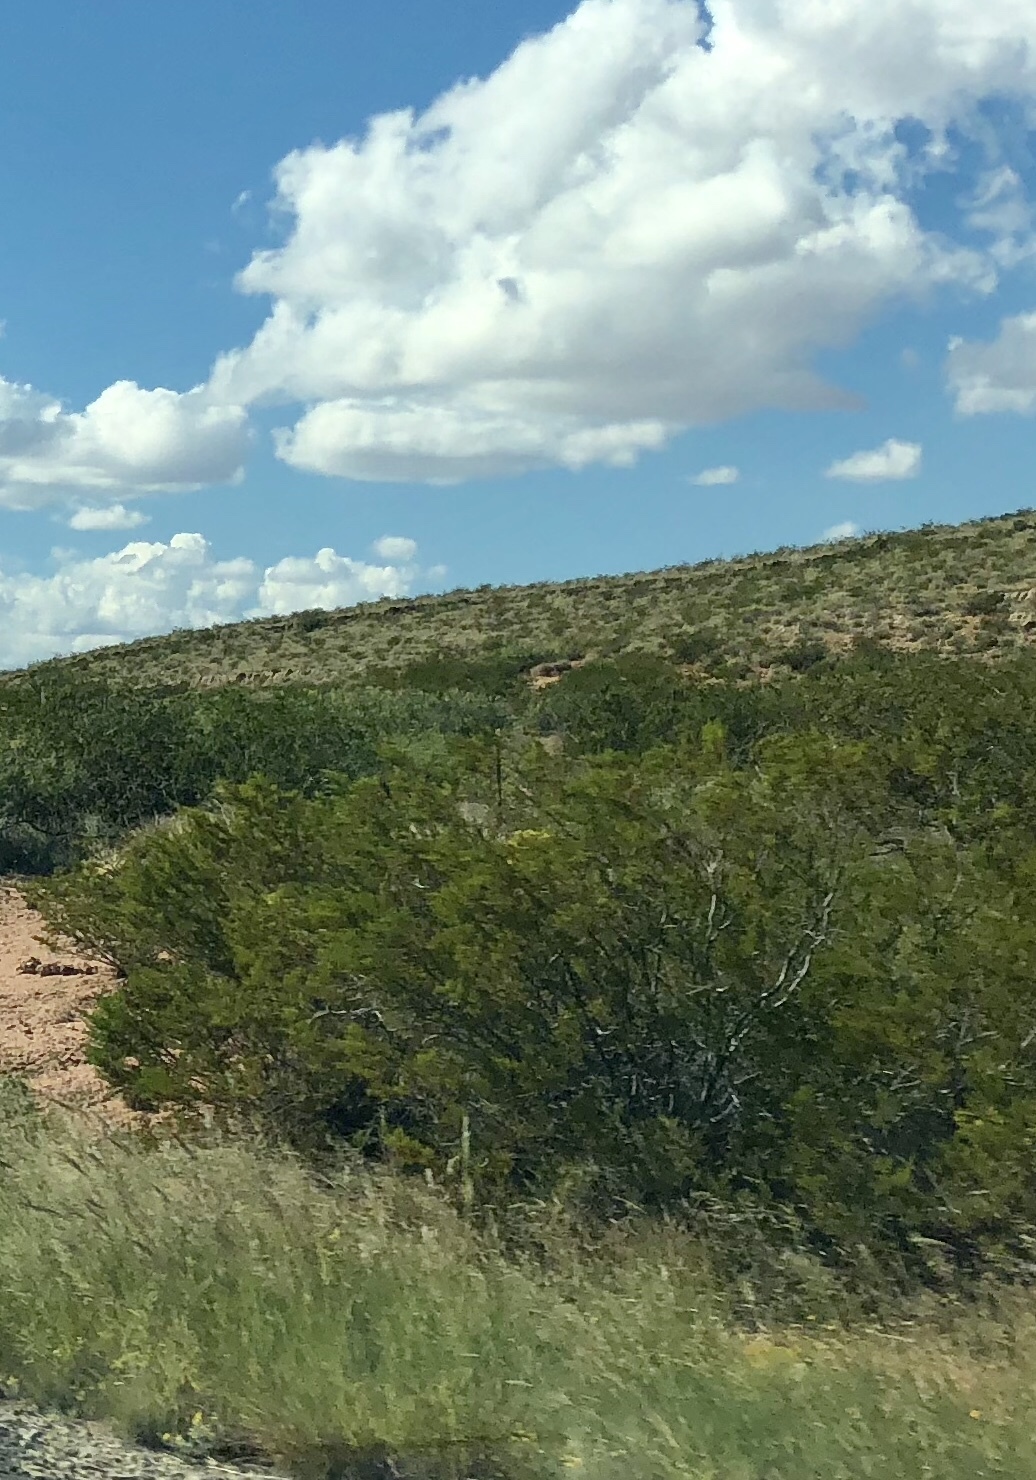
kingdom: Plantae
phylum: Tracheophyta
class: Magnoliopsida
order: Zygophyllales
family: Zygophyllaceae
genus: Larrea
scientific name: Larrea tridentata
